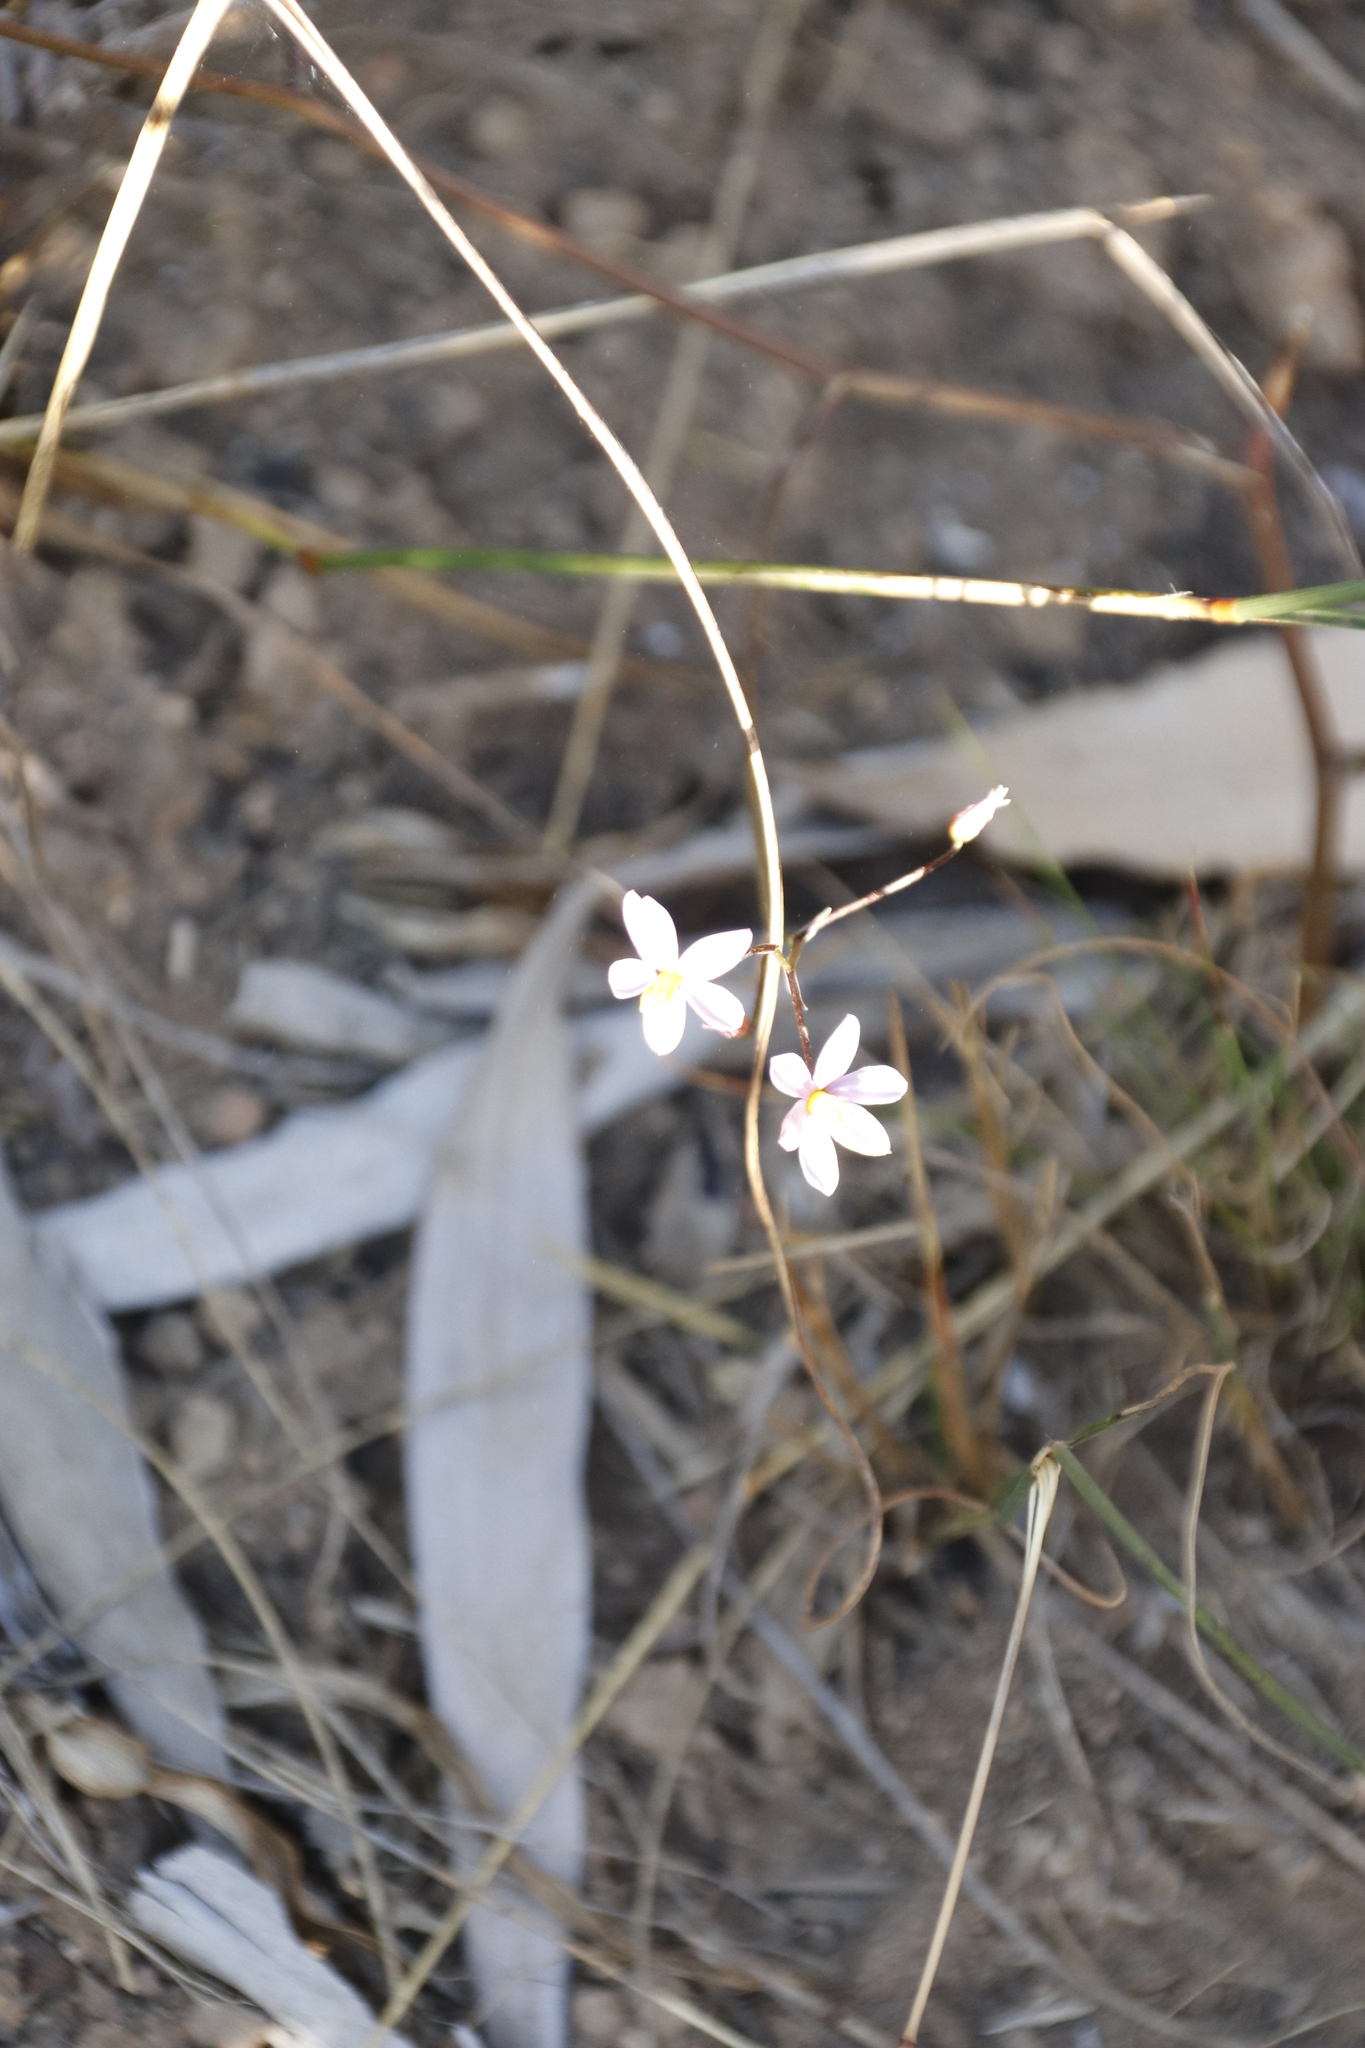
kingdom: Plantae
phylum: Tracheophyta
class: Liliopsida
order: Asparagales
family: Tecophilaeaceae
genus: Cyanella
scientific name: Cyanella hyacinthoides
